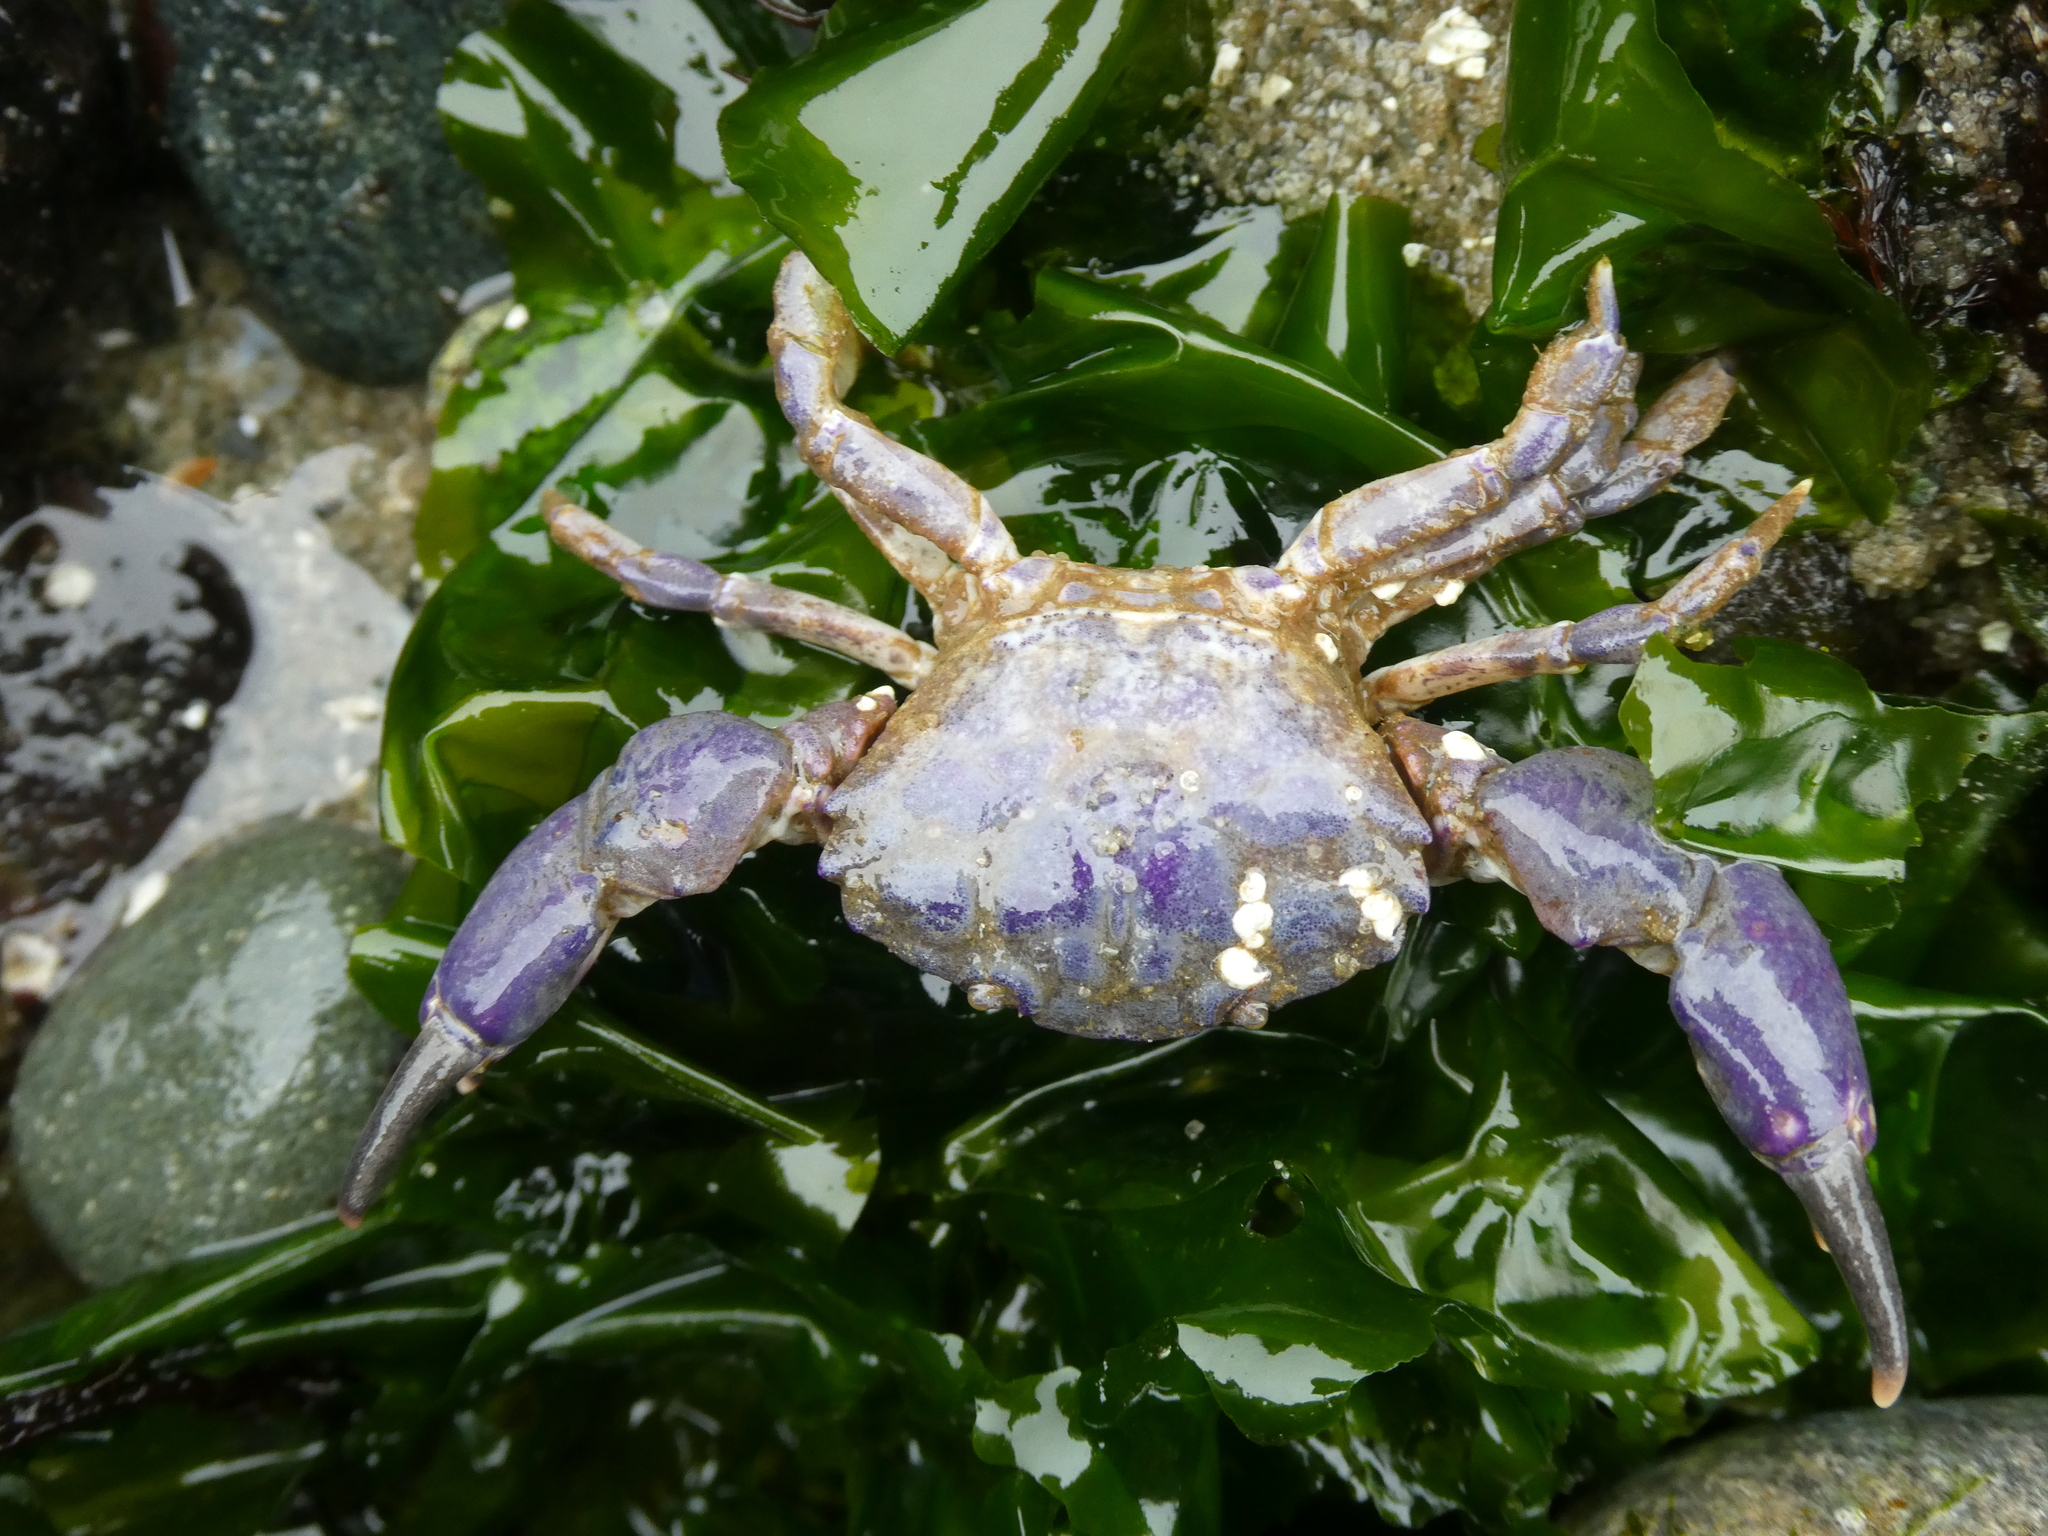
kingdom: Animalia
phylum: Arthropoda
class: Malacostraca
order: Decapoda
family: Panopeidae
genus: Lophopanopeus
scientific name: Lophopanopeus bellus
